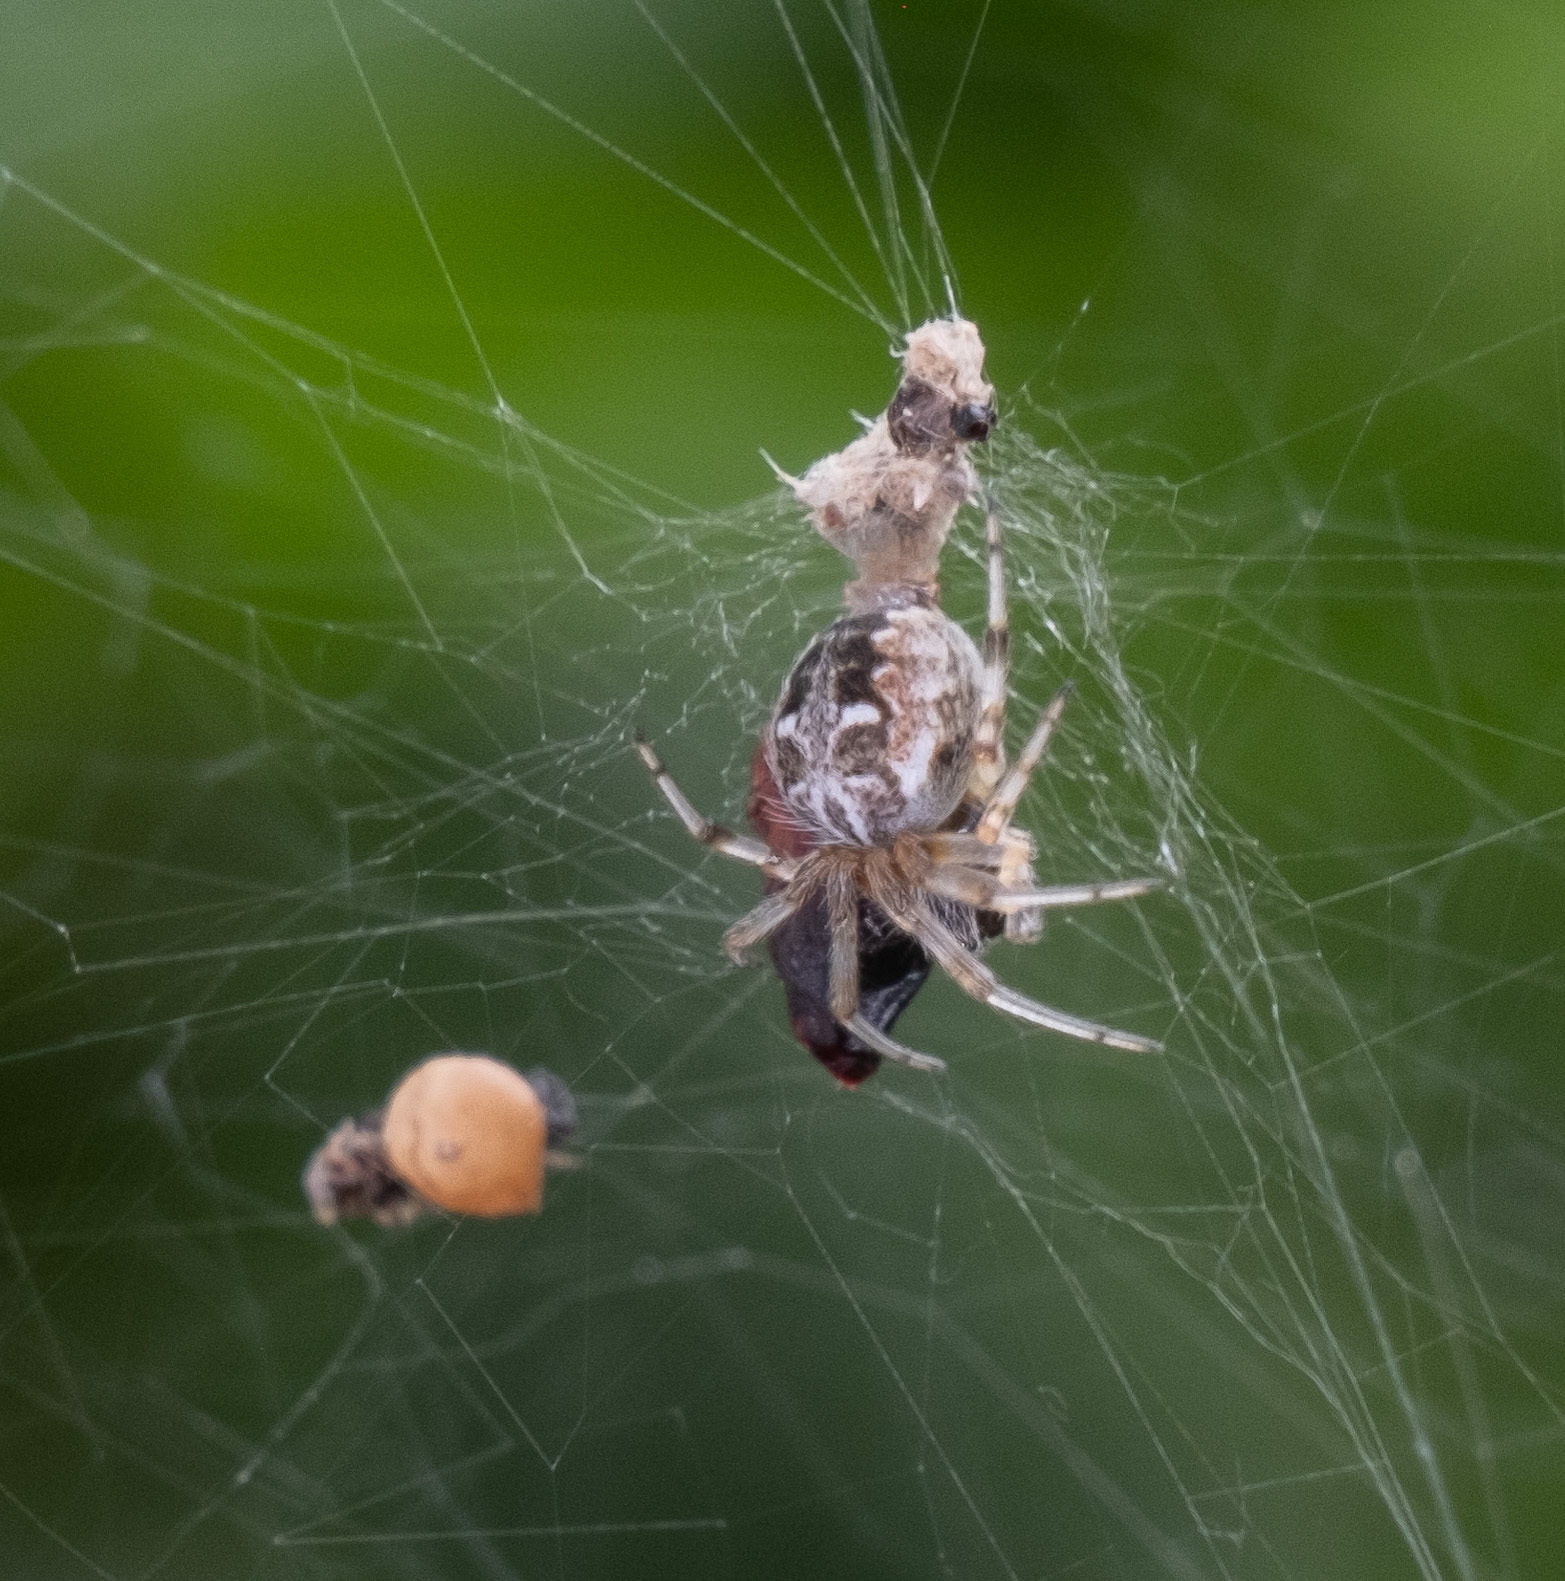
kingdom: Animalia
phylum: Arthropoda
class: Arachnida
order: Araneae
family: Araneidae
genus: Metepeira
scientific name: Metepeira labyrinthea
